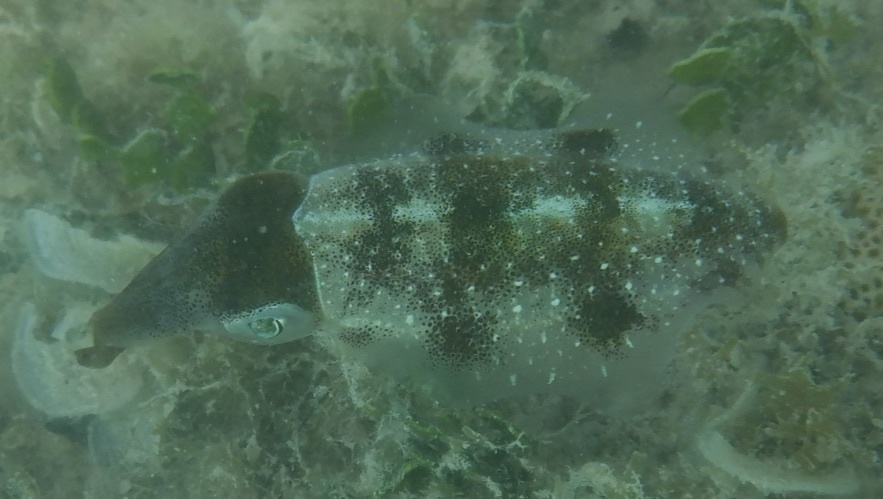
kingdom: Animalia
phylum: Mollusca
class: Cephalopoda
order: Myopsida
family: Loliginidae
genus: Sepioteuthis
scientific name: Sepioteuthis sepioidea
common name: Caribbean reef squid
